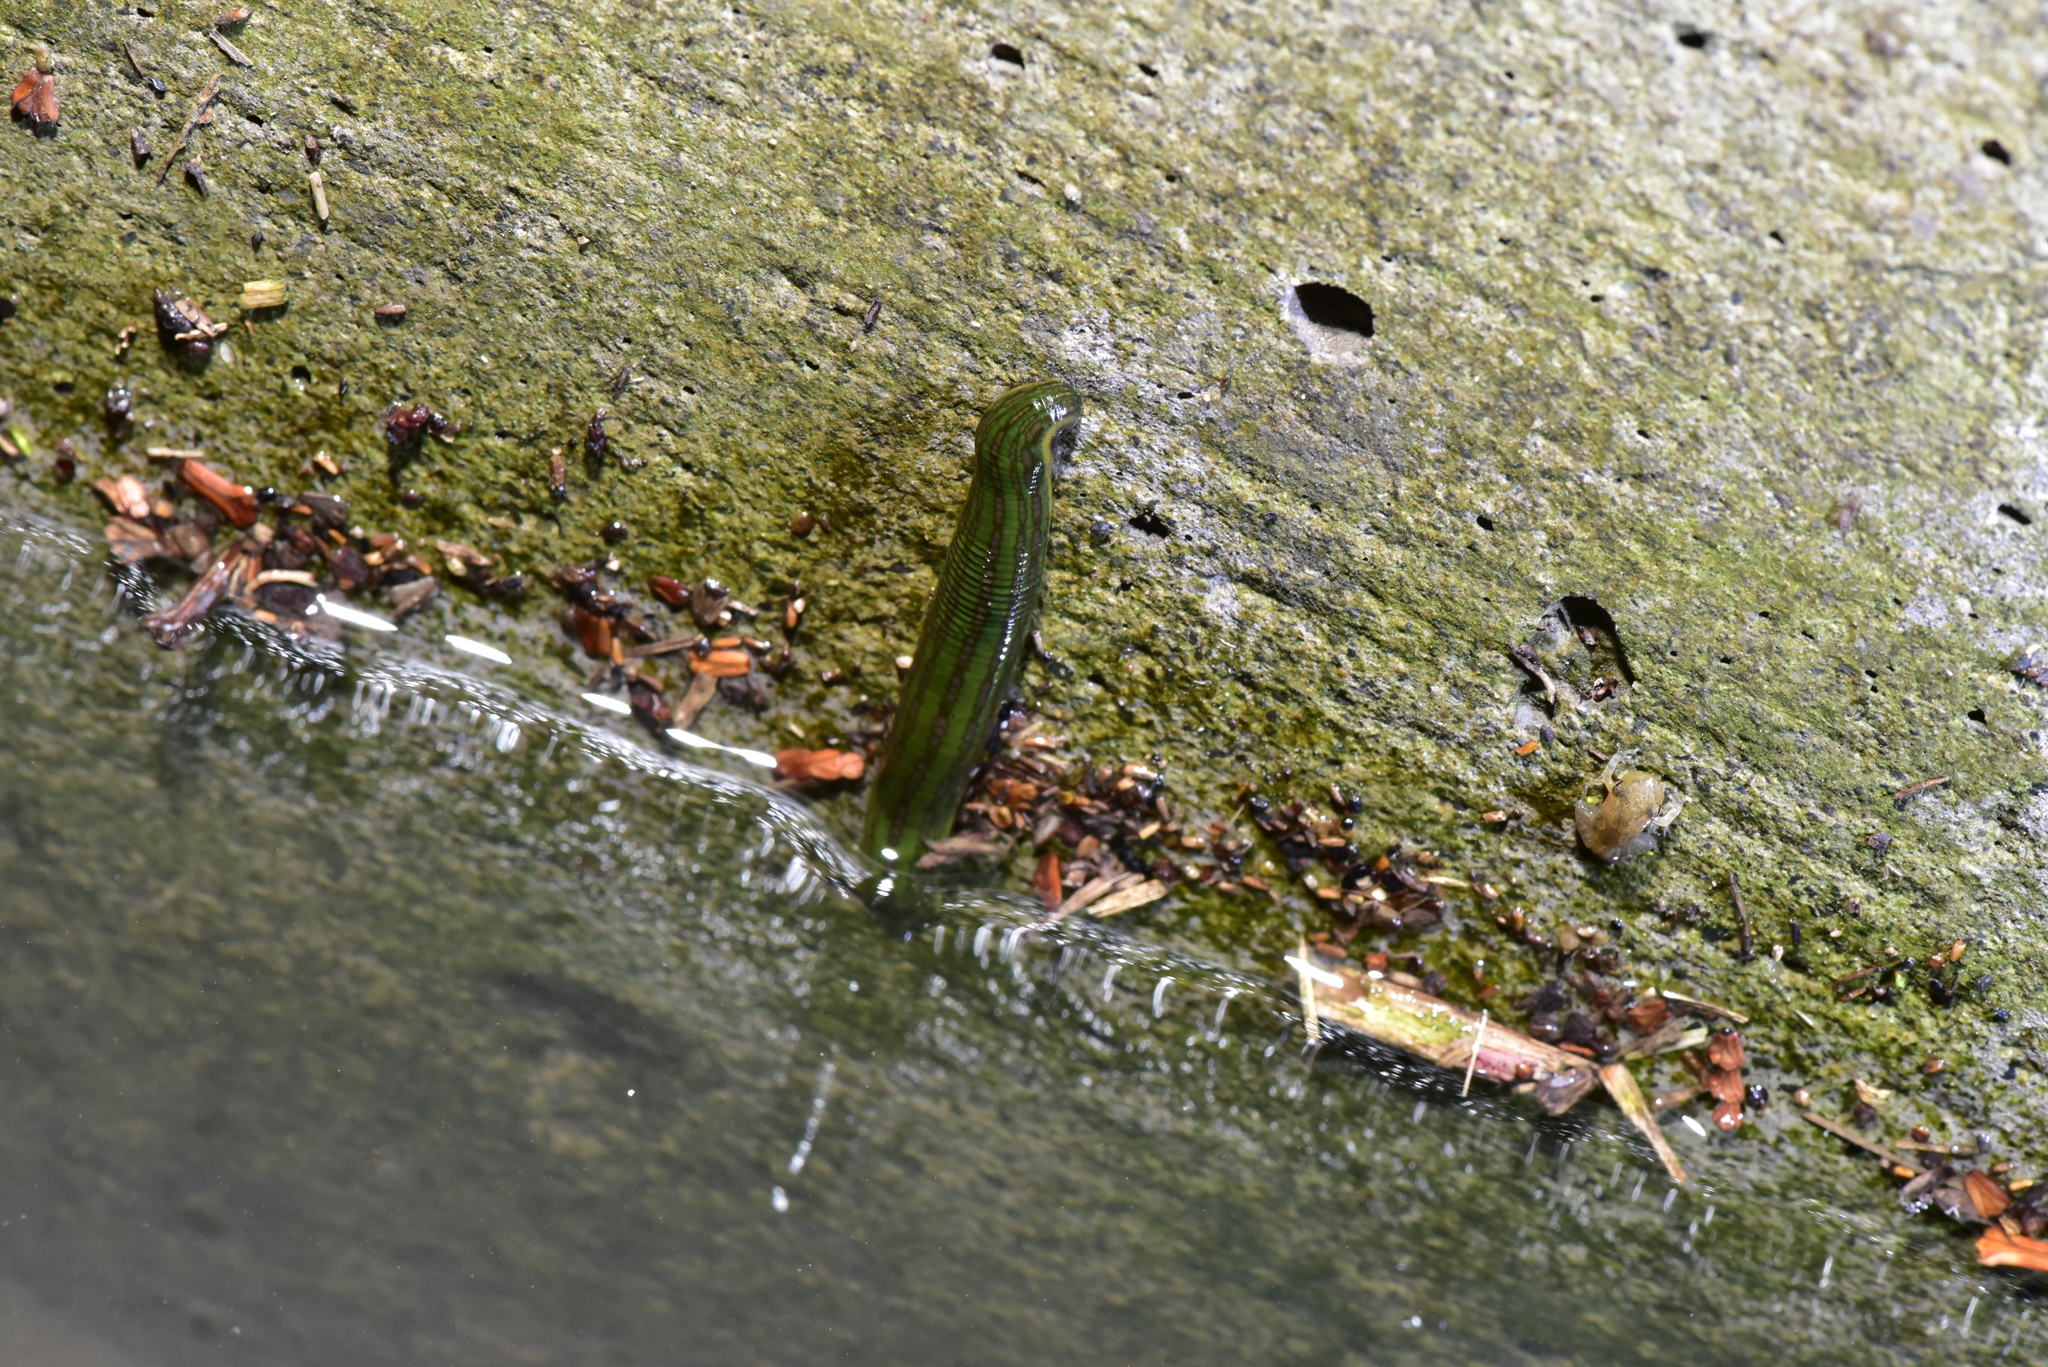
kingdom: Animalia
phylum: Annelida
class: Clitellata
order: Arhynchobdellida
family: Hirudinidae
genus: Whitmania
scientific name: Whitmania laevis
